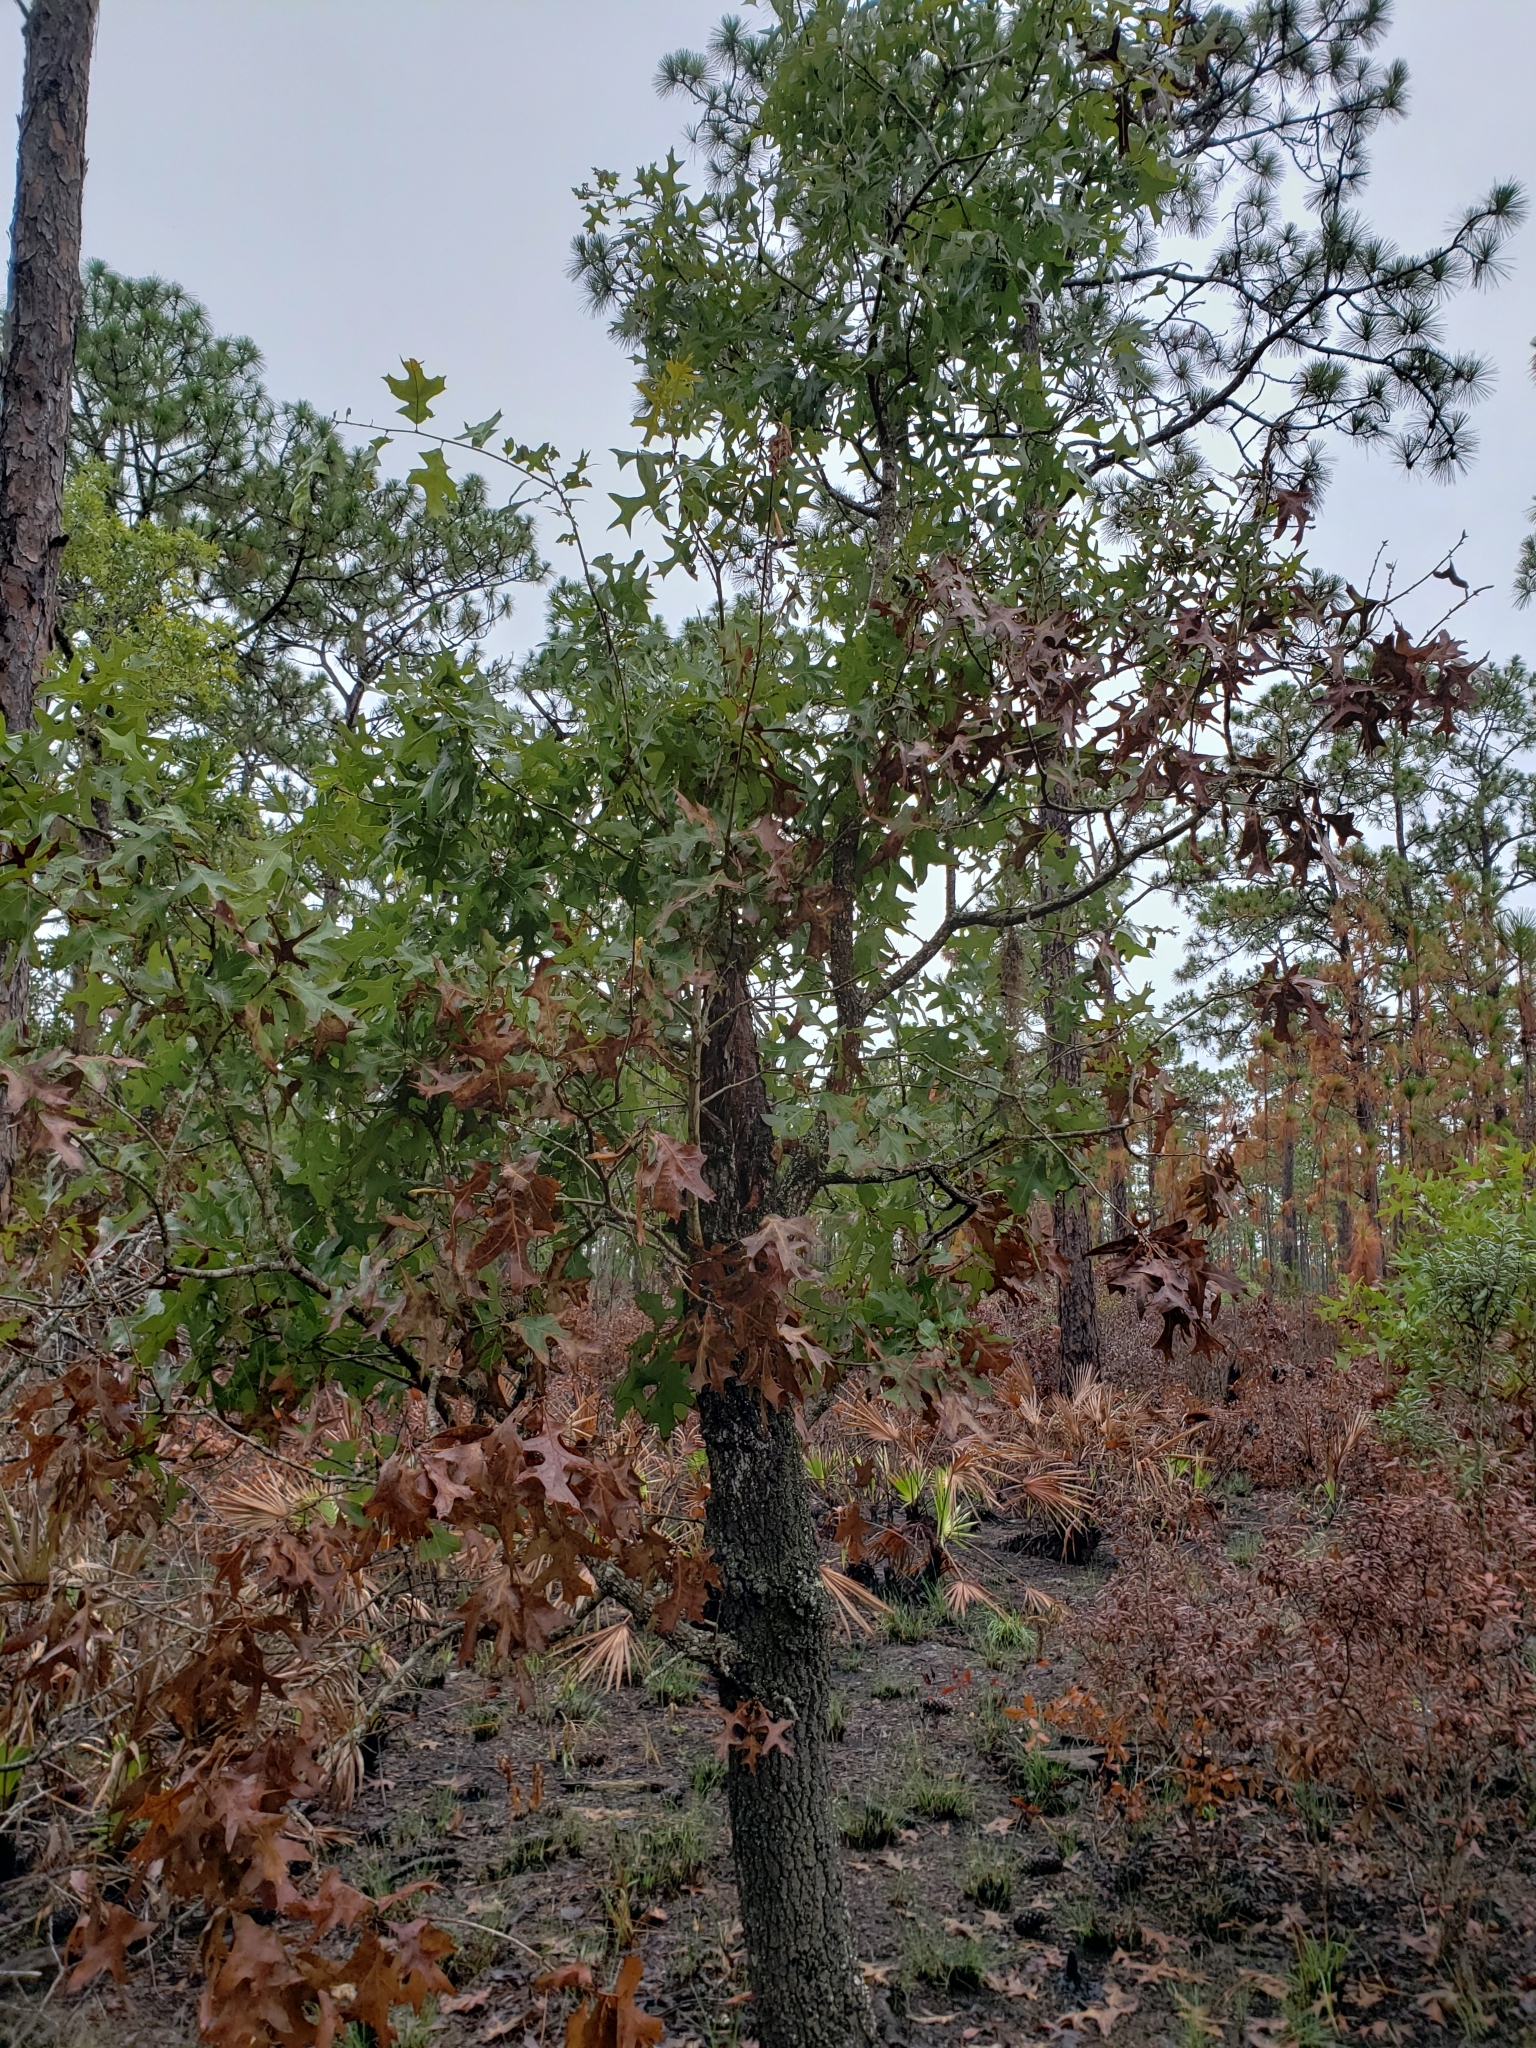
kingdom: Plantae
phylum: Tracheophyta
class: Magnoliopsida
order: Fagales
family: Fagaceae
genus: Quercus
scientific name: Quercus laevis
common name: Turkey oak
